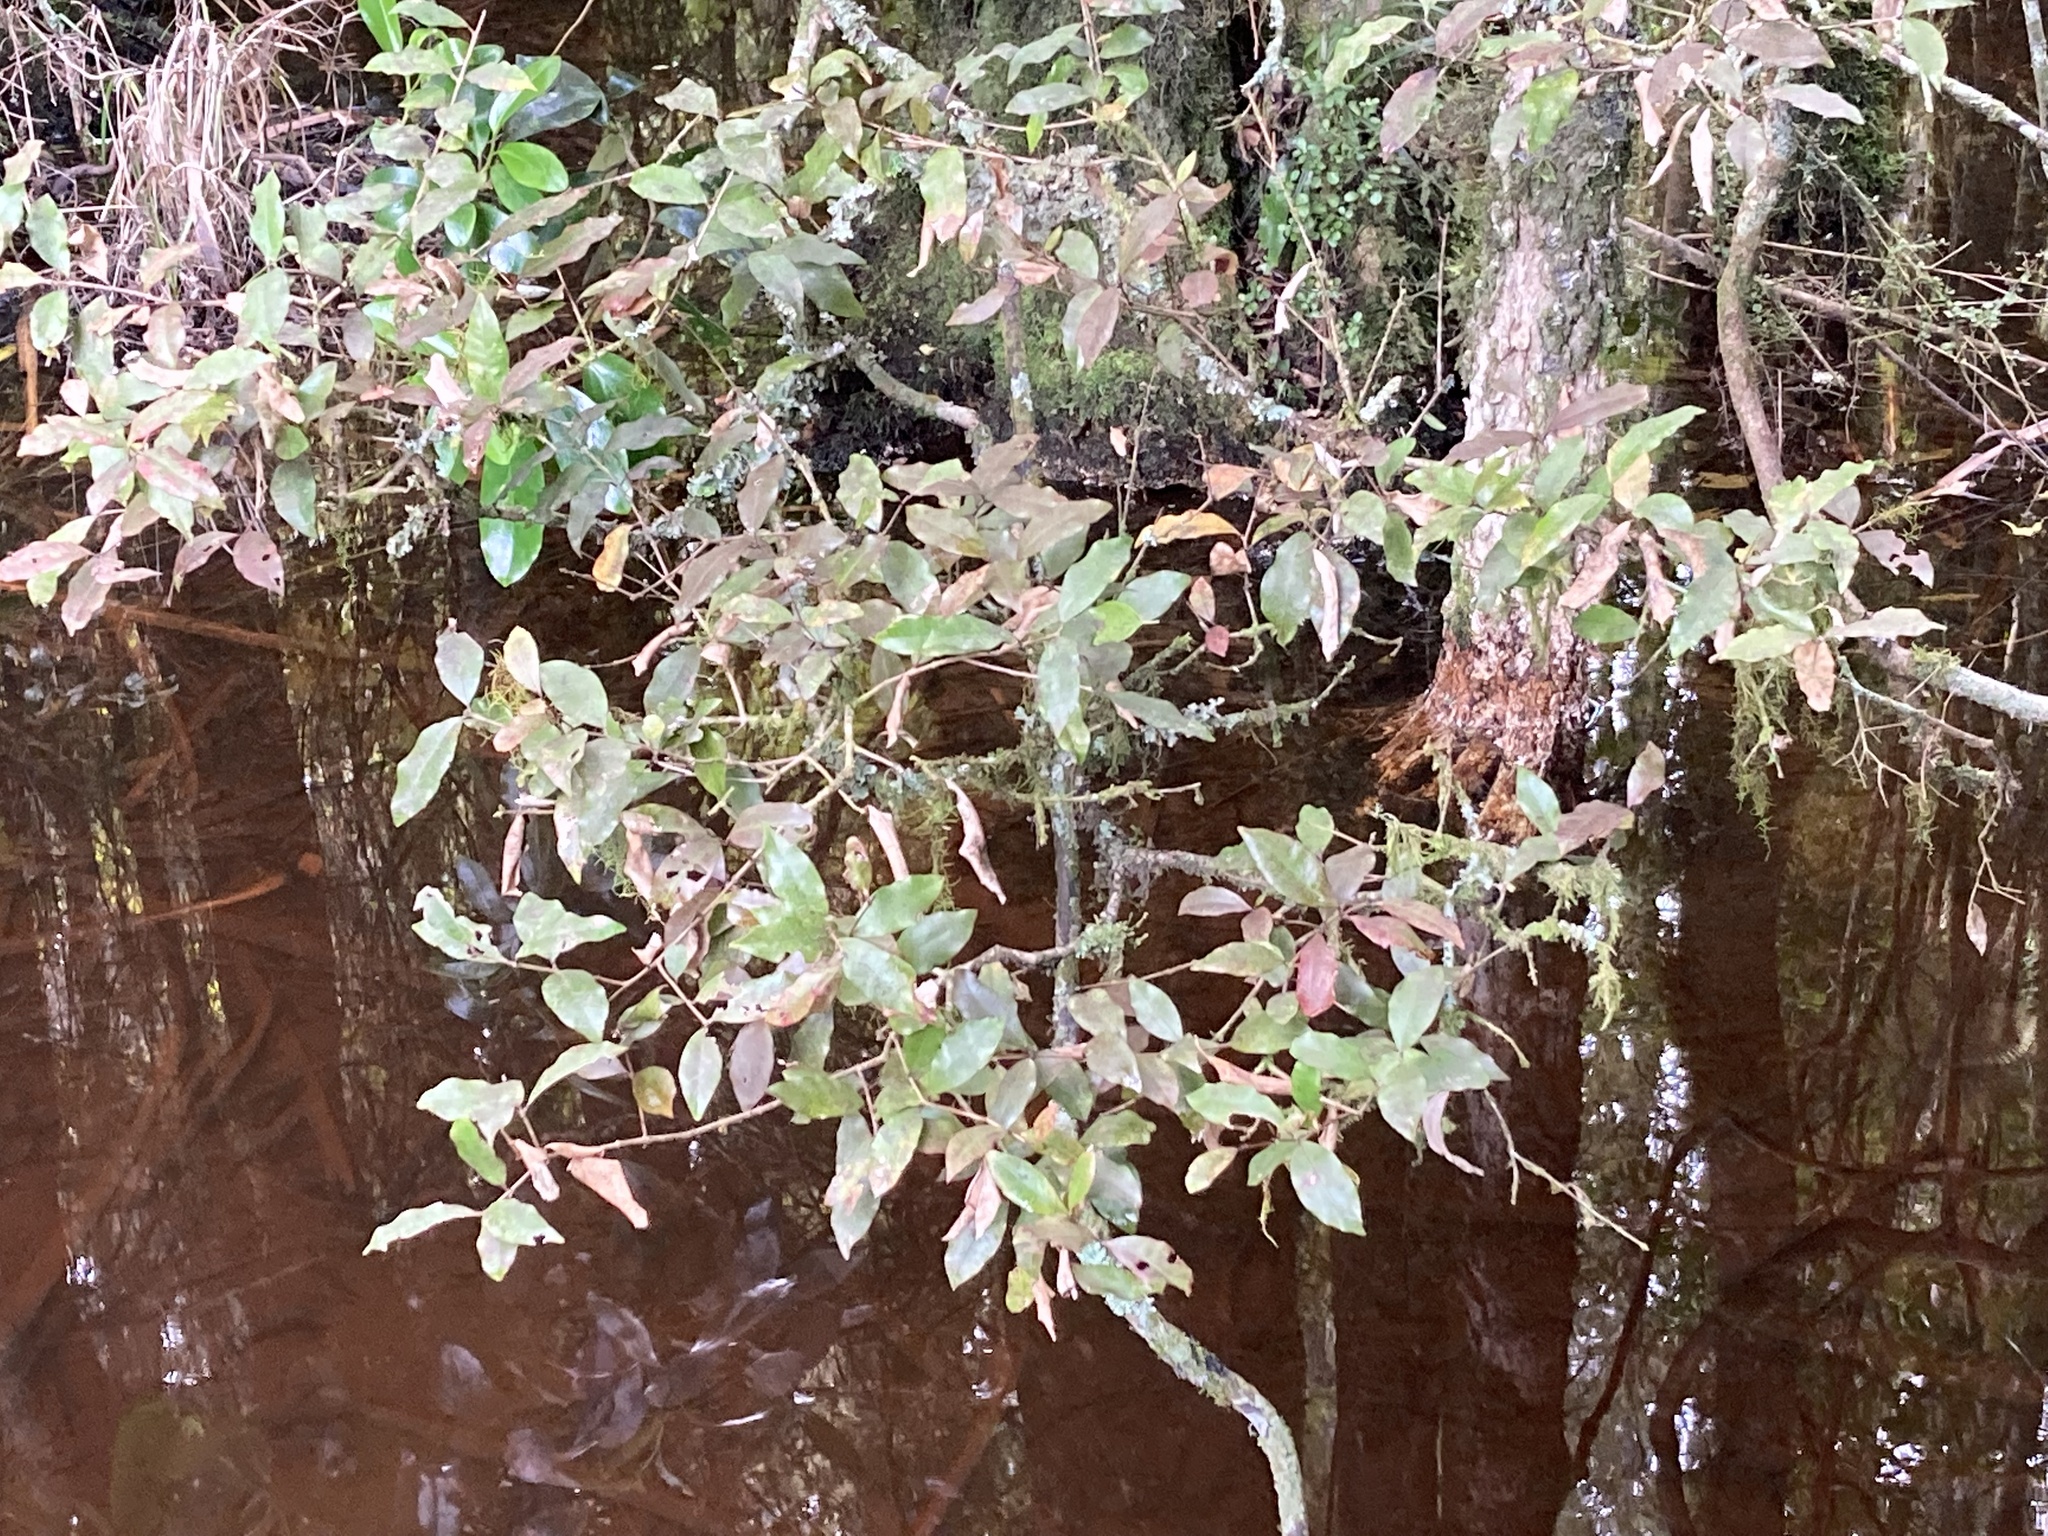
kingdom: Plantae
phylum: Tracheophyta
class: Magnoliopsida
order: Myrtales
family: Myrtaceae
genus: Syzygium
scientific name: Syzygium maire
